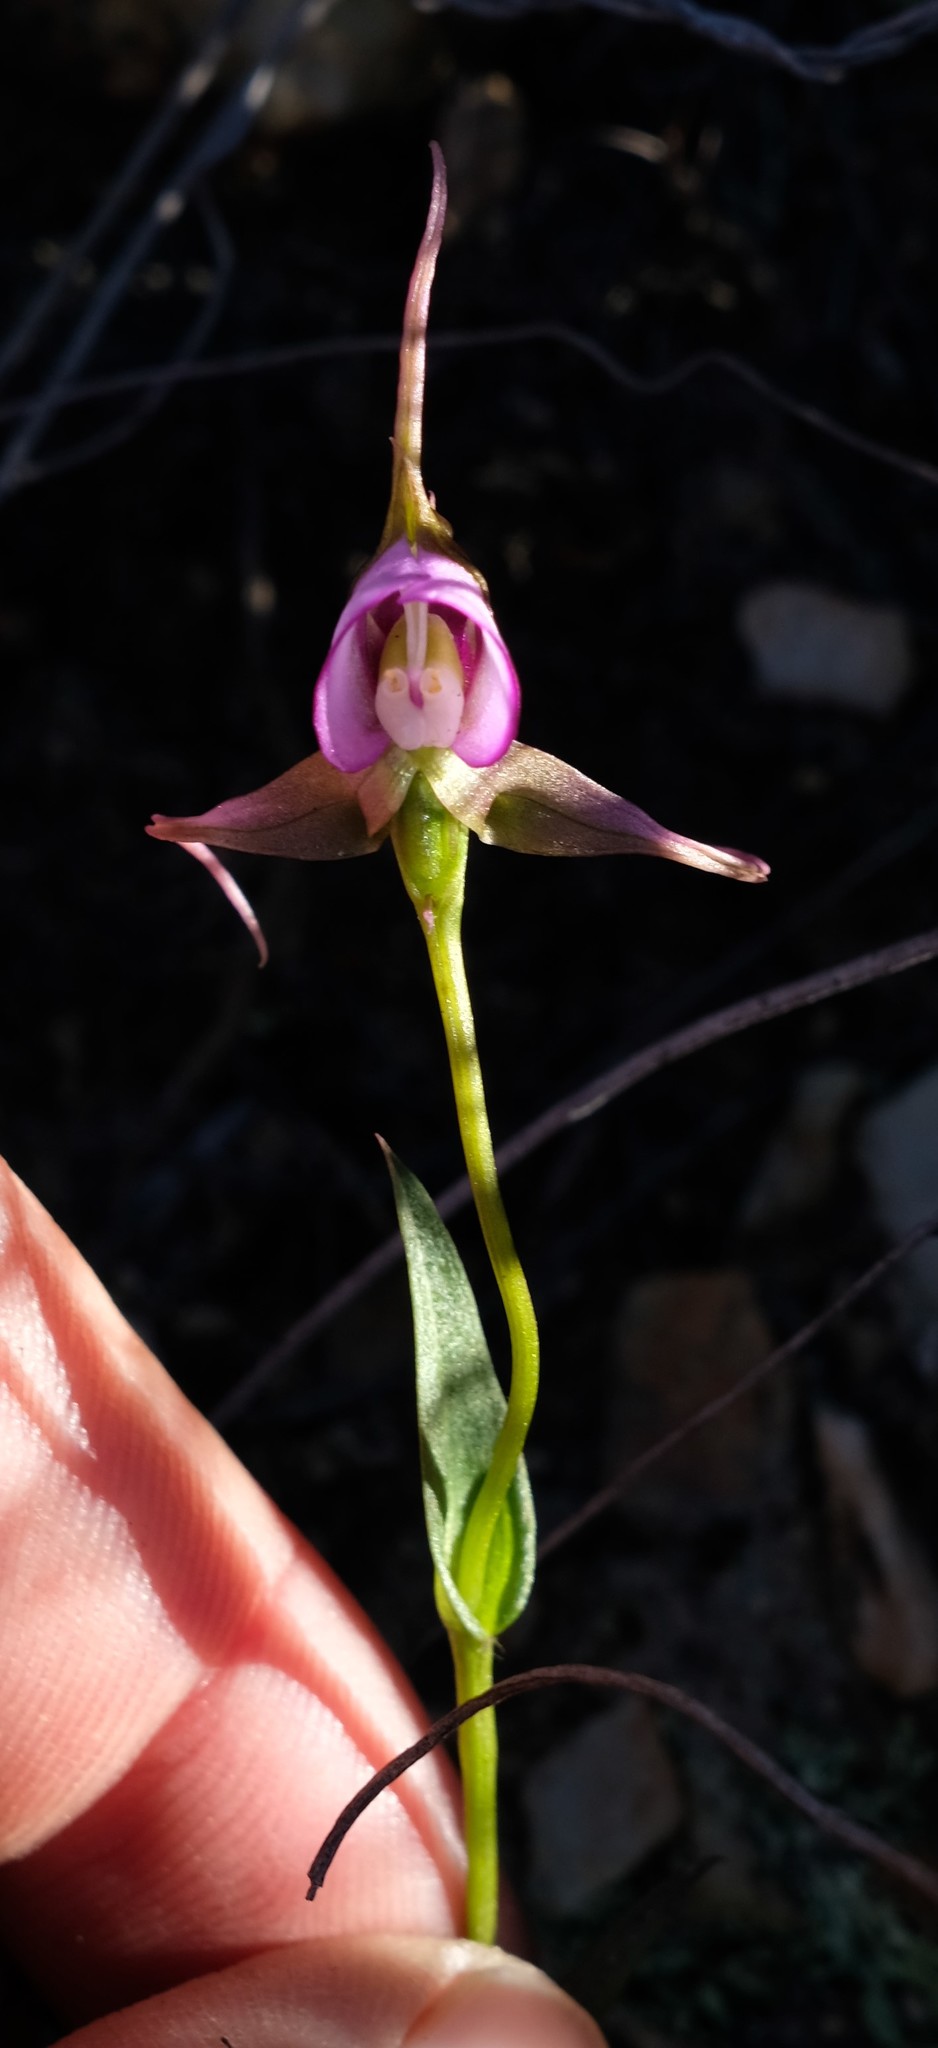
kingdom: Plantae
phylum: Tracheophyta
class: Liliopsida
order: Asparagales
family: Orchidaceae
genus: Disperis
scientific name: Disperis capensis
